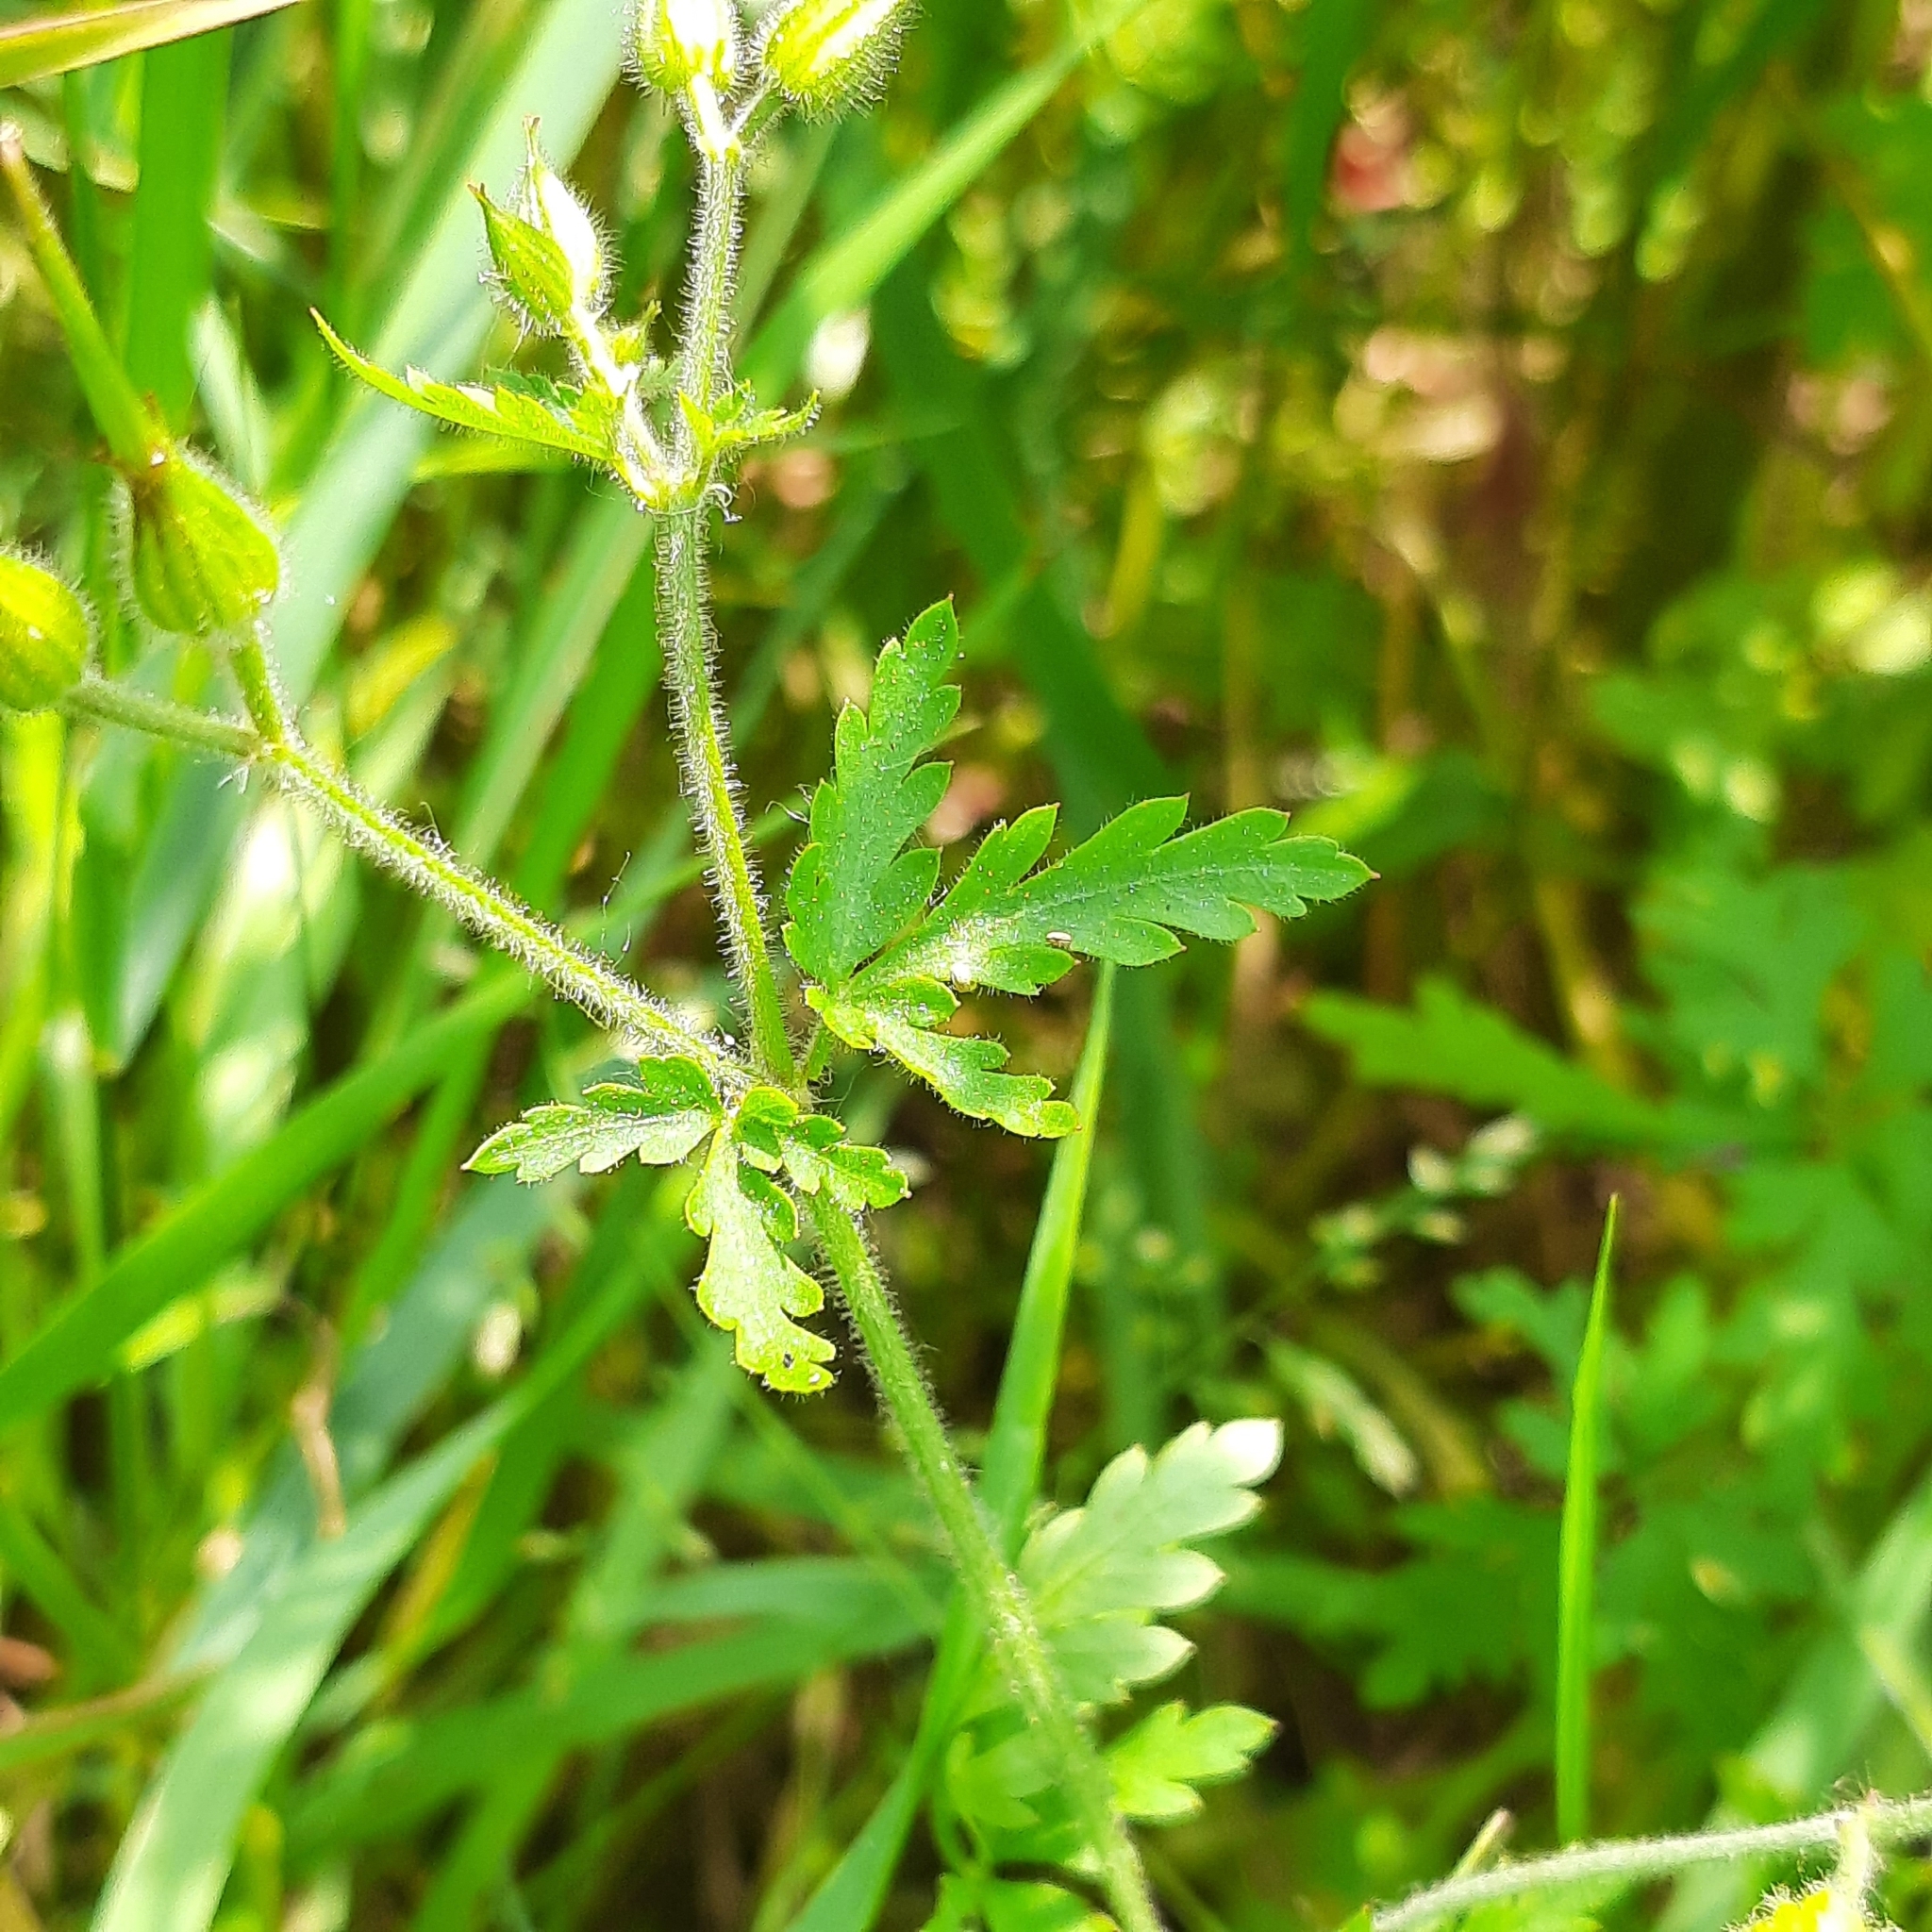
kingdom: Plantae
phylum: Tracheophyta
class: Magnoliopsida
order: Geraniales
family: Geraniaceae
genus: Geranium
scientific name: Geranium purpureum
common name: Little-robin
